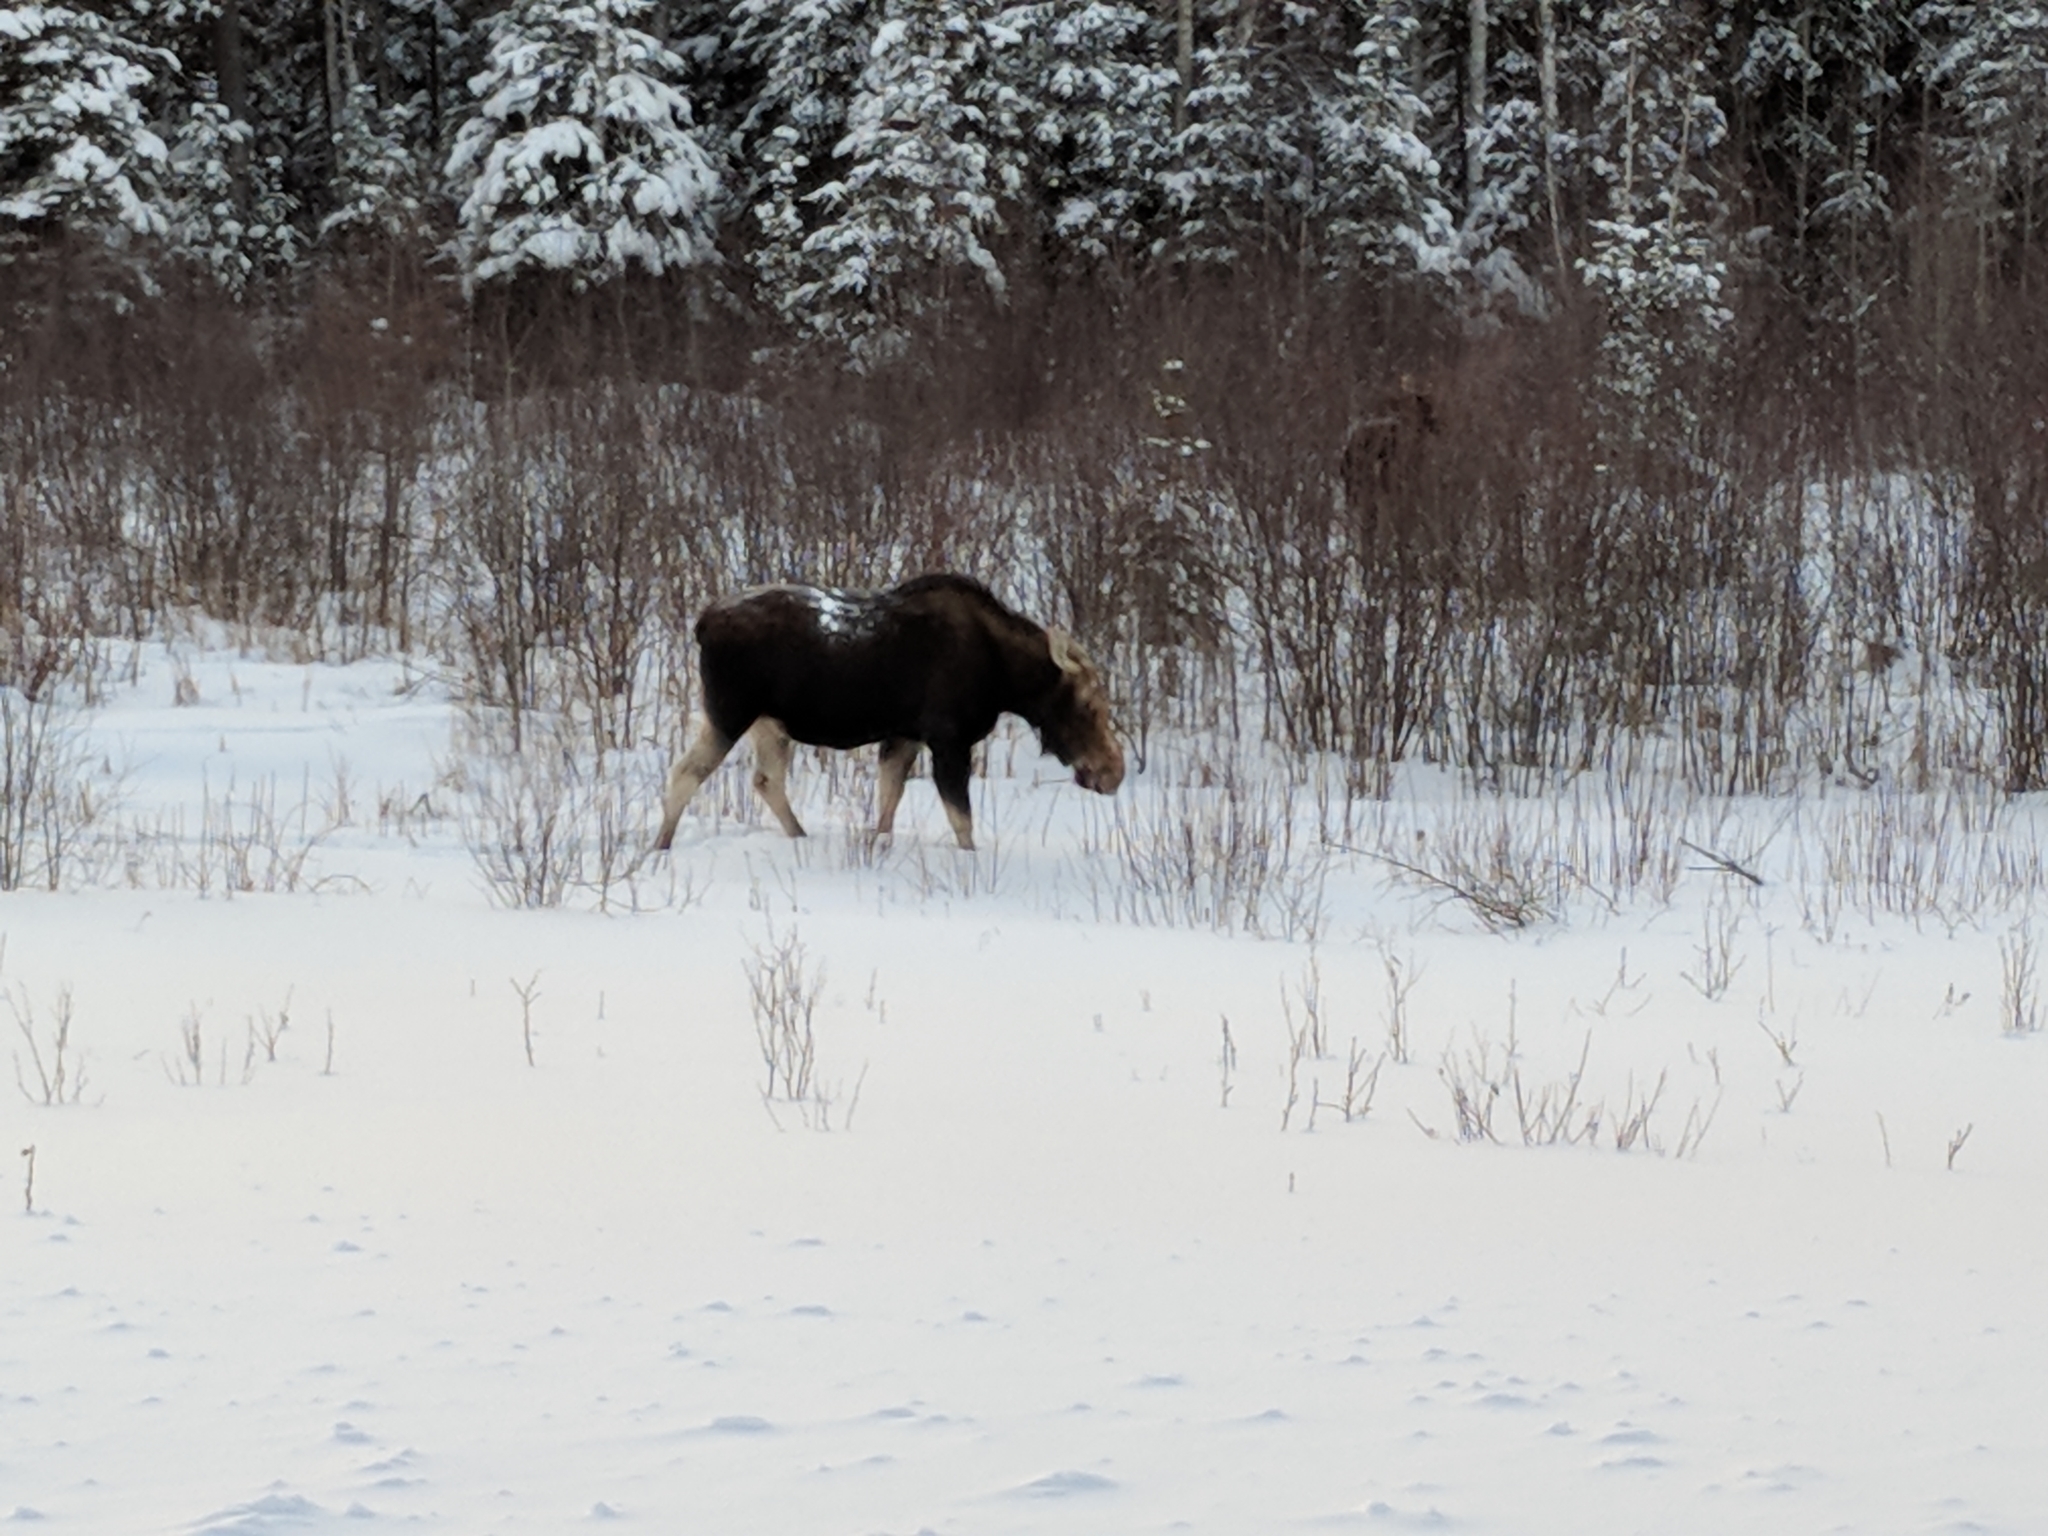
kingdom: Animalia
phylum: Chordata
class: Mammalia
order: Artiodactyla
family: Cervidae
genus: Alces
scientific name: Alces alces
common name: Moose
